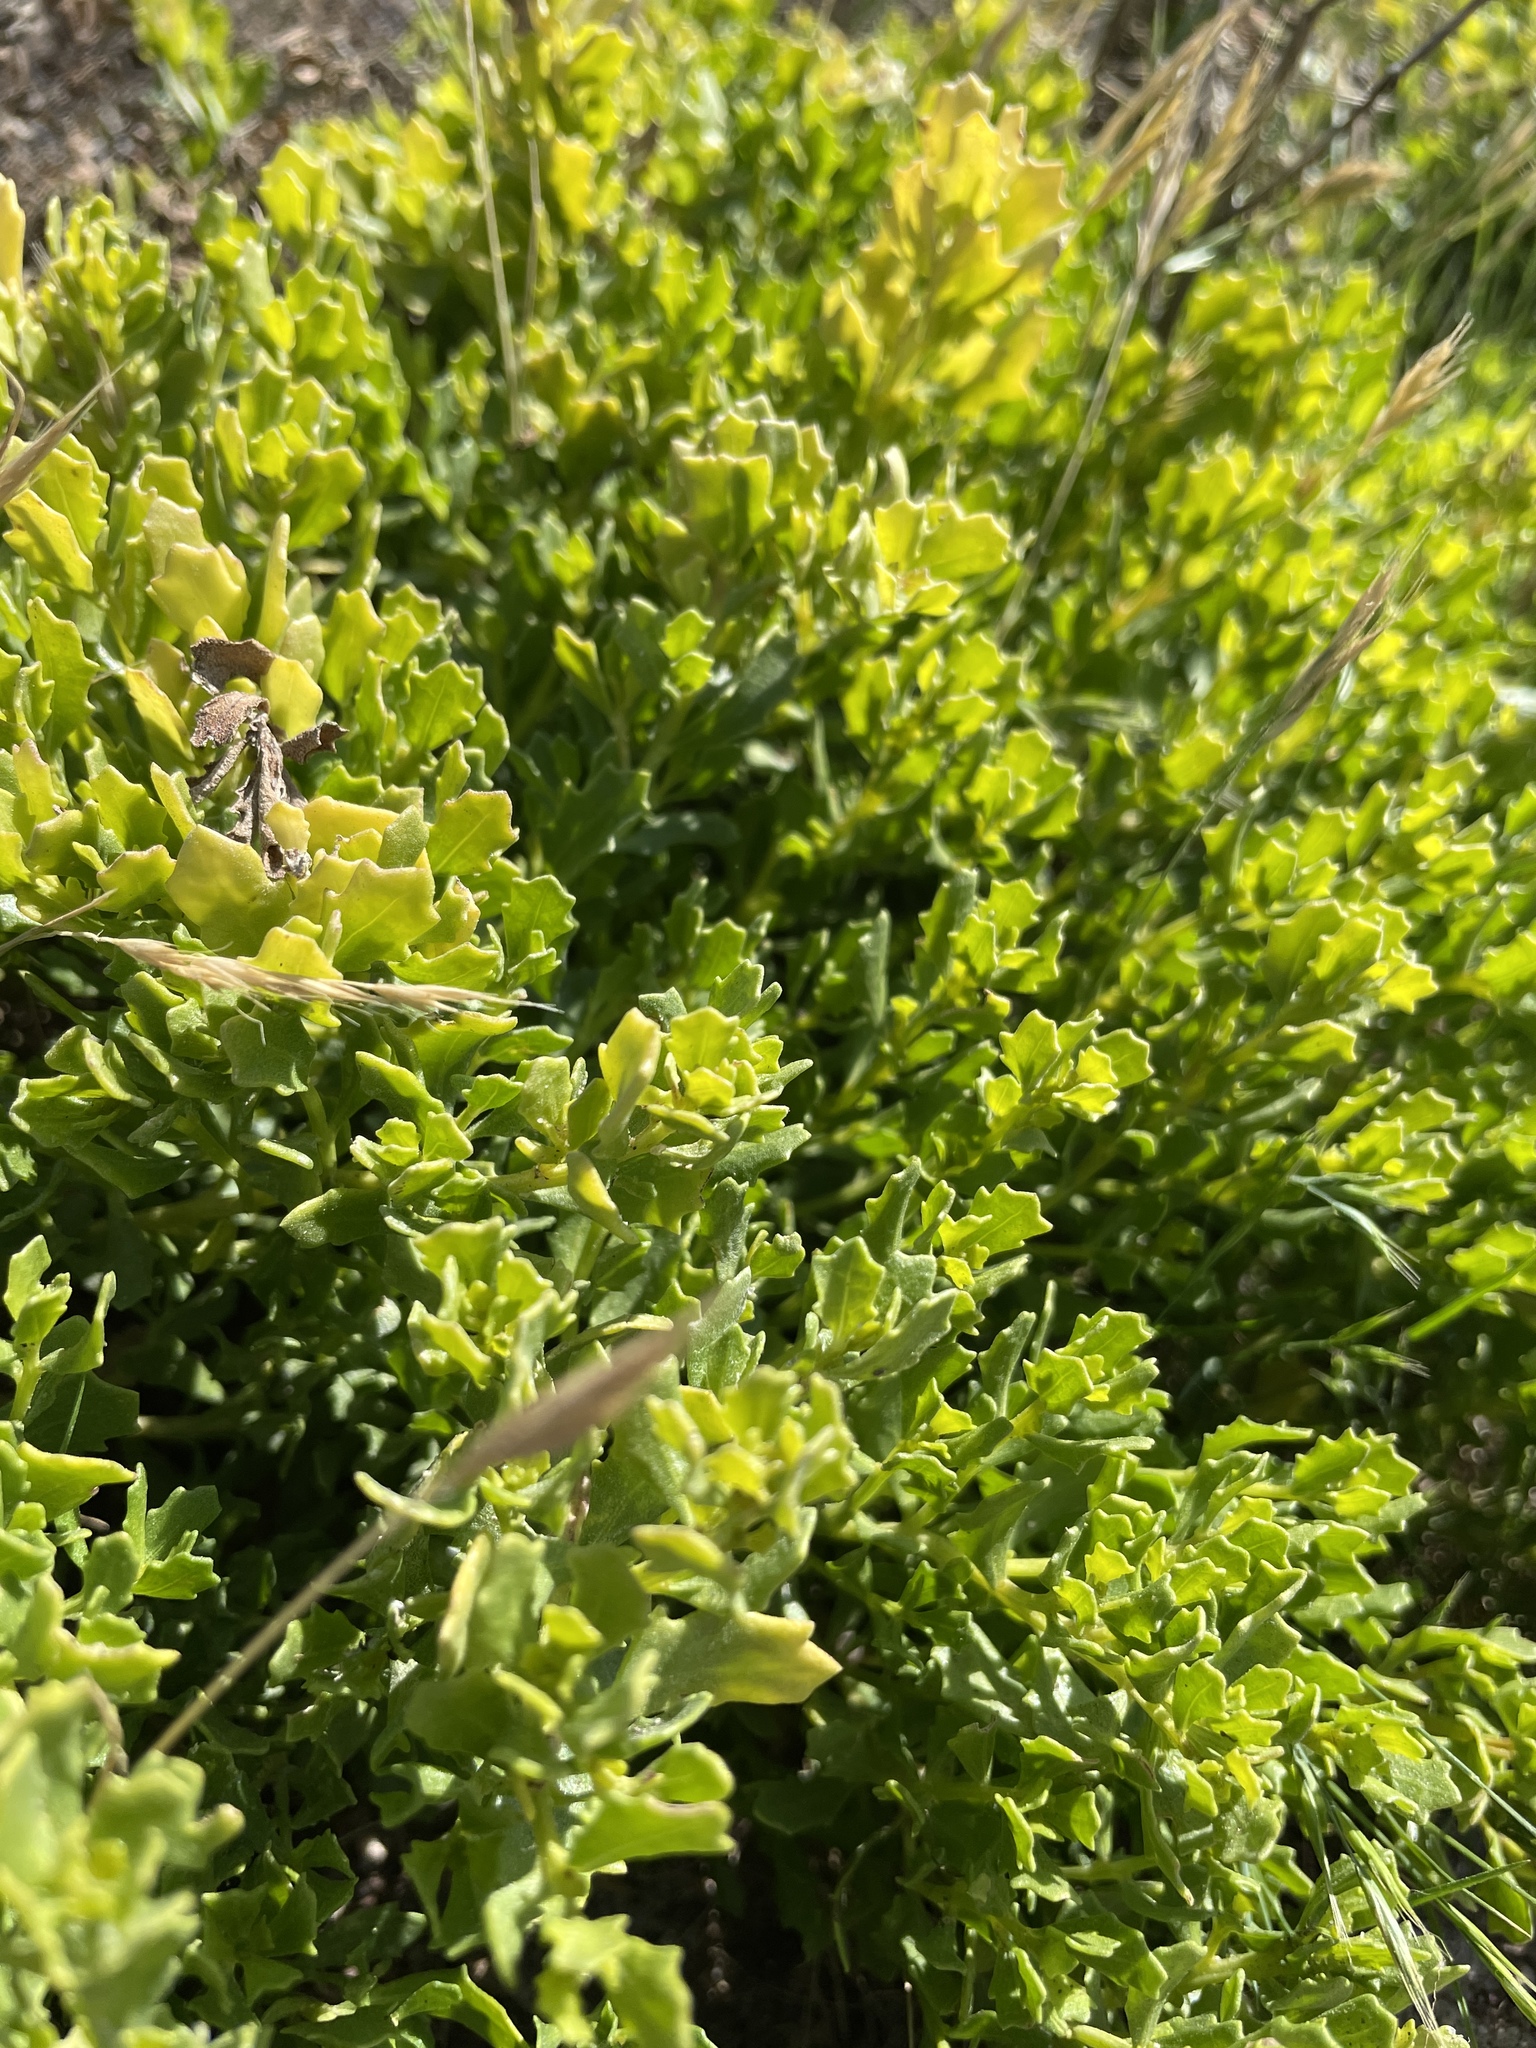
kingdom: Plantae
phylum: Tracheophyta
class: Magnoliopsida
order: Asterales
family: Asteraceae
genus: Baccharis
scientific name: Baccharis pilularis
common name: Coyotebrush
